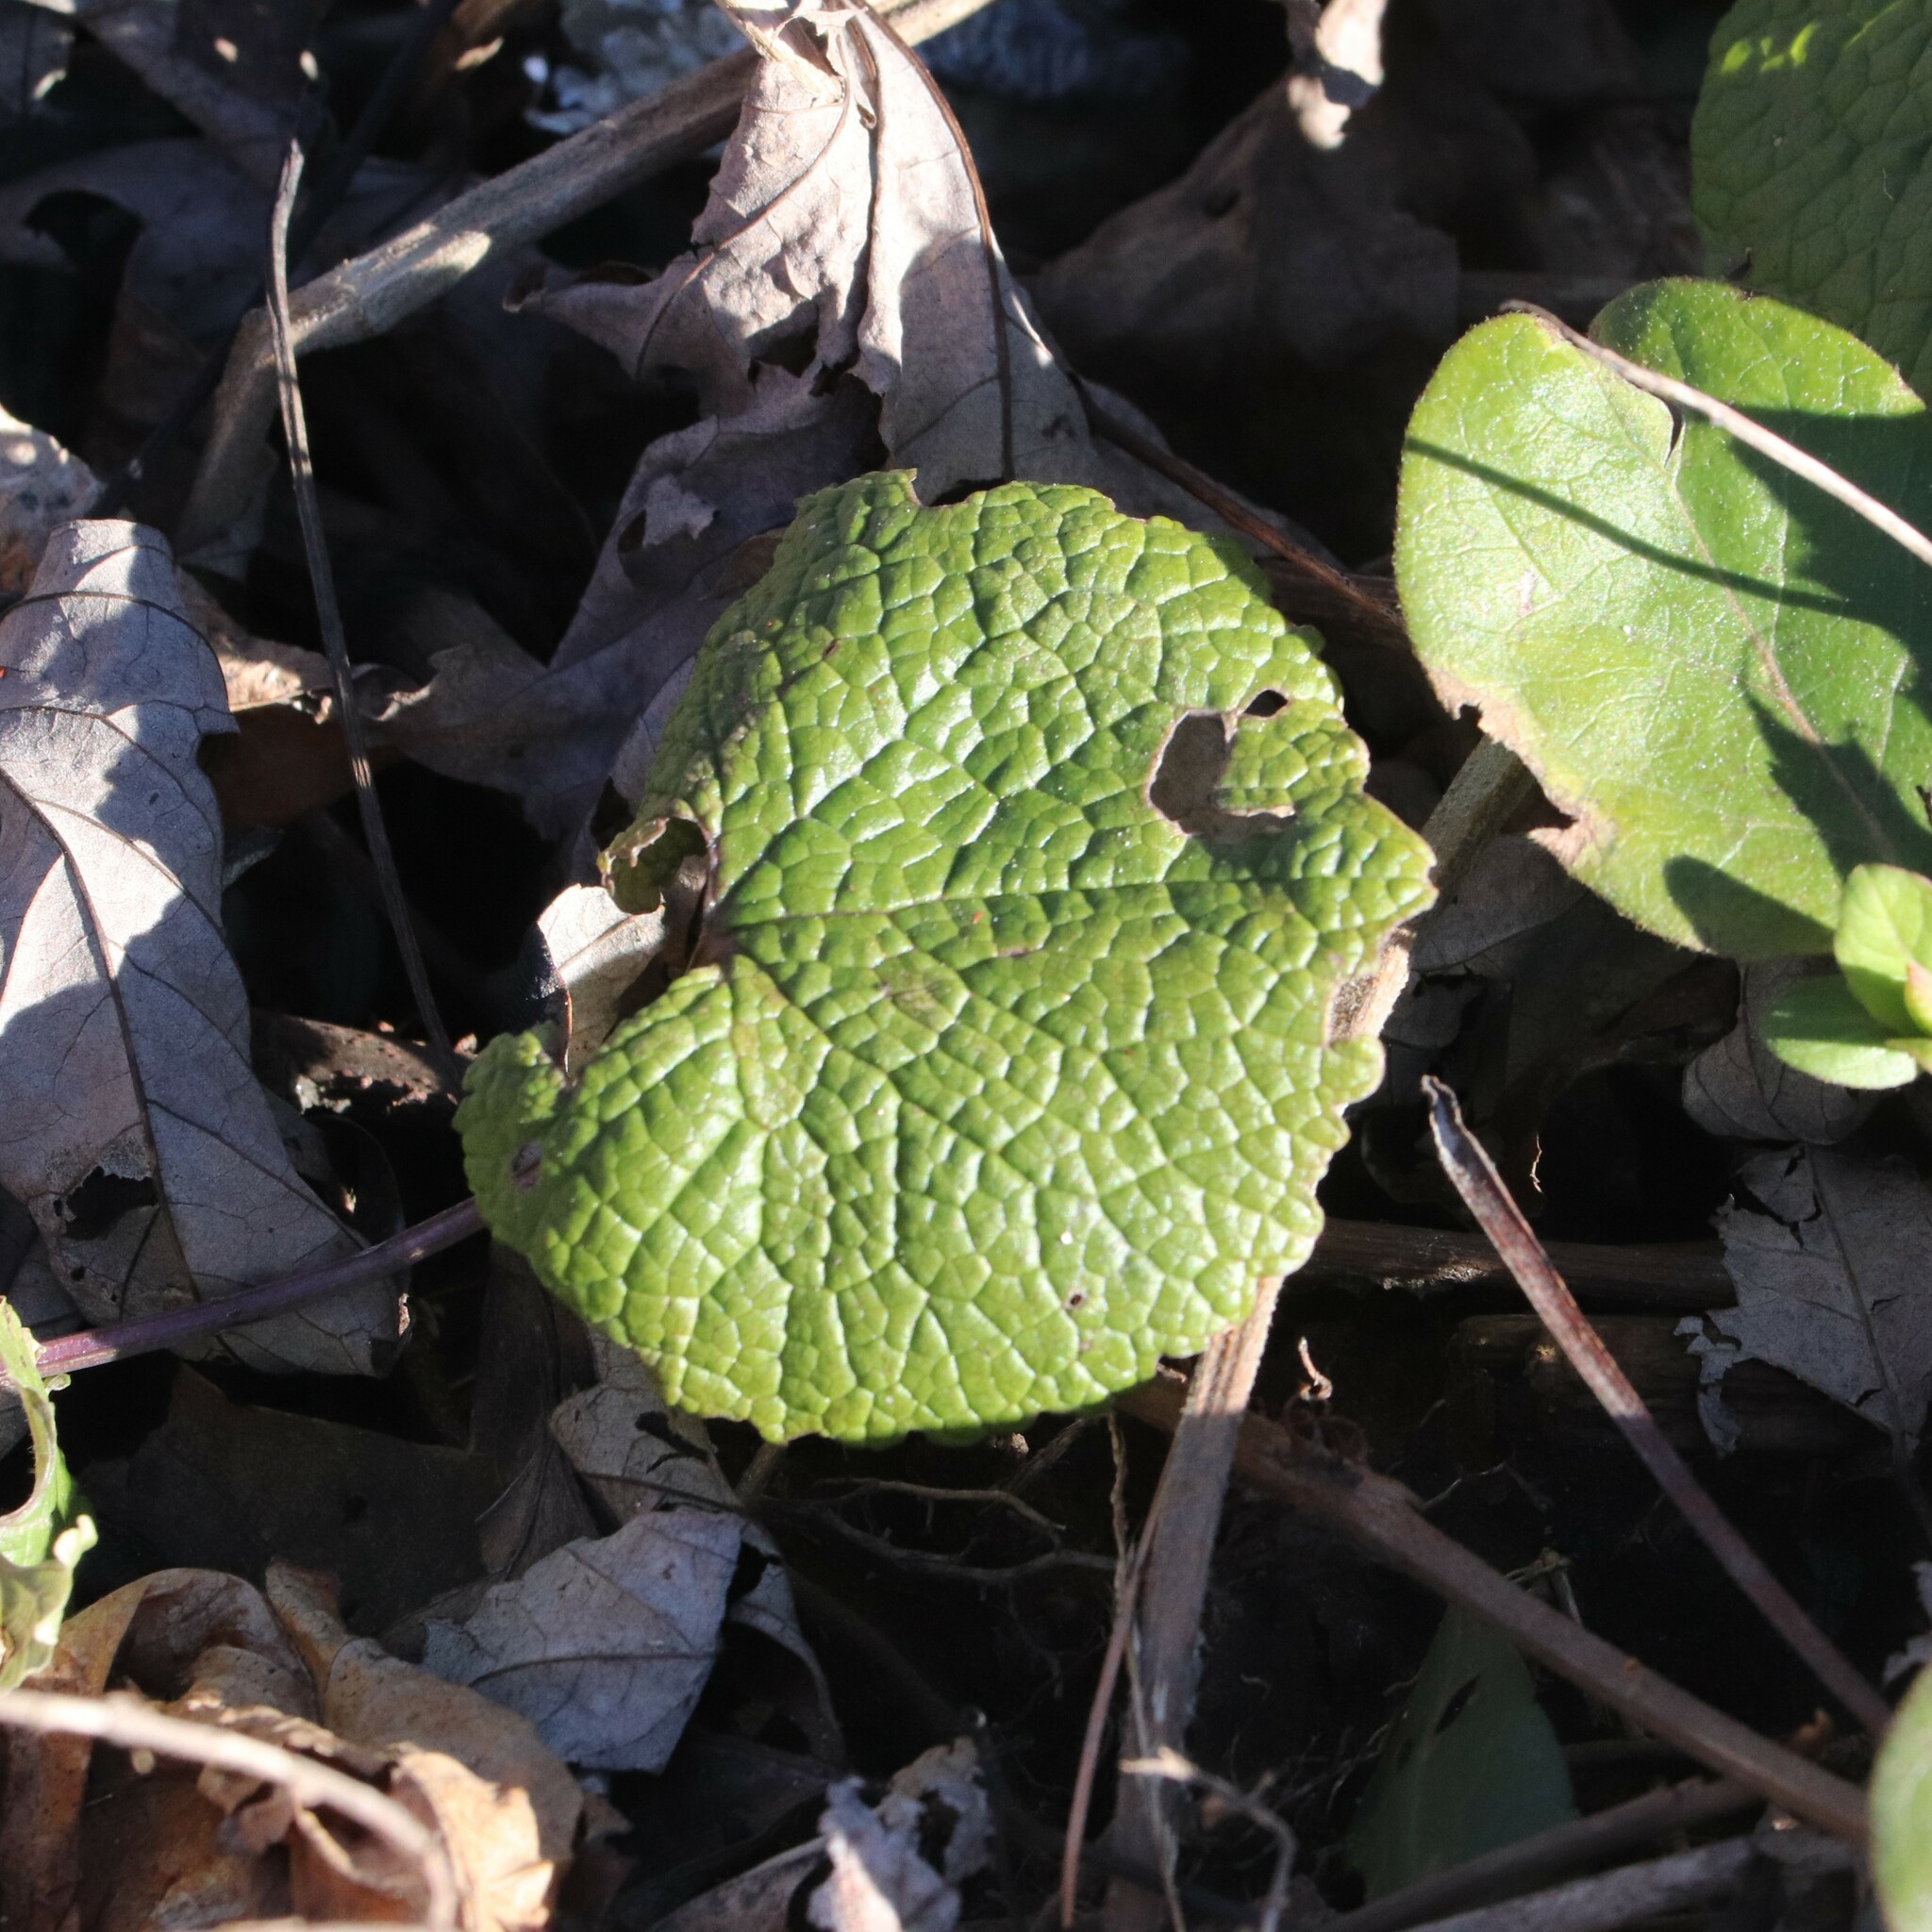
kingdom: Plantae
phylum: Tracheophyta
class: Magnoliopsida
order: Brassicales
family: Brassicaceae
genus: Alliaria
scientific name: Alliaria petiolata
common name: Garlic mustard
